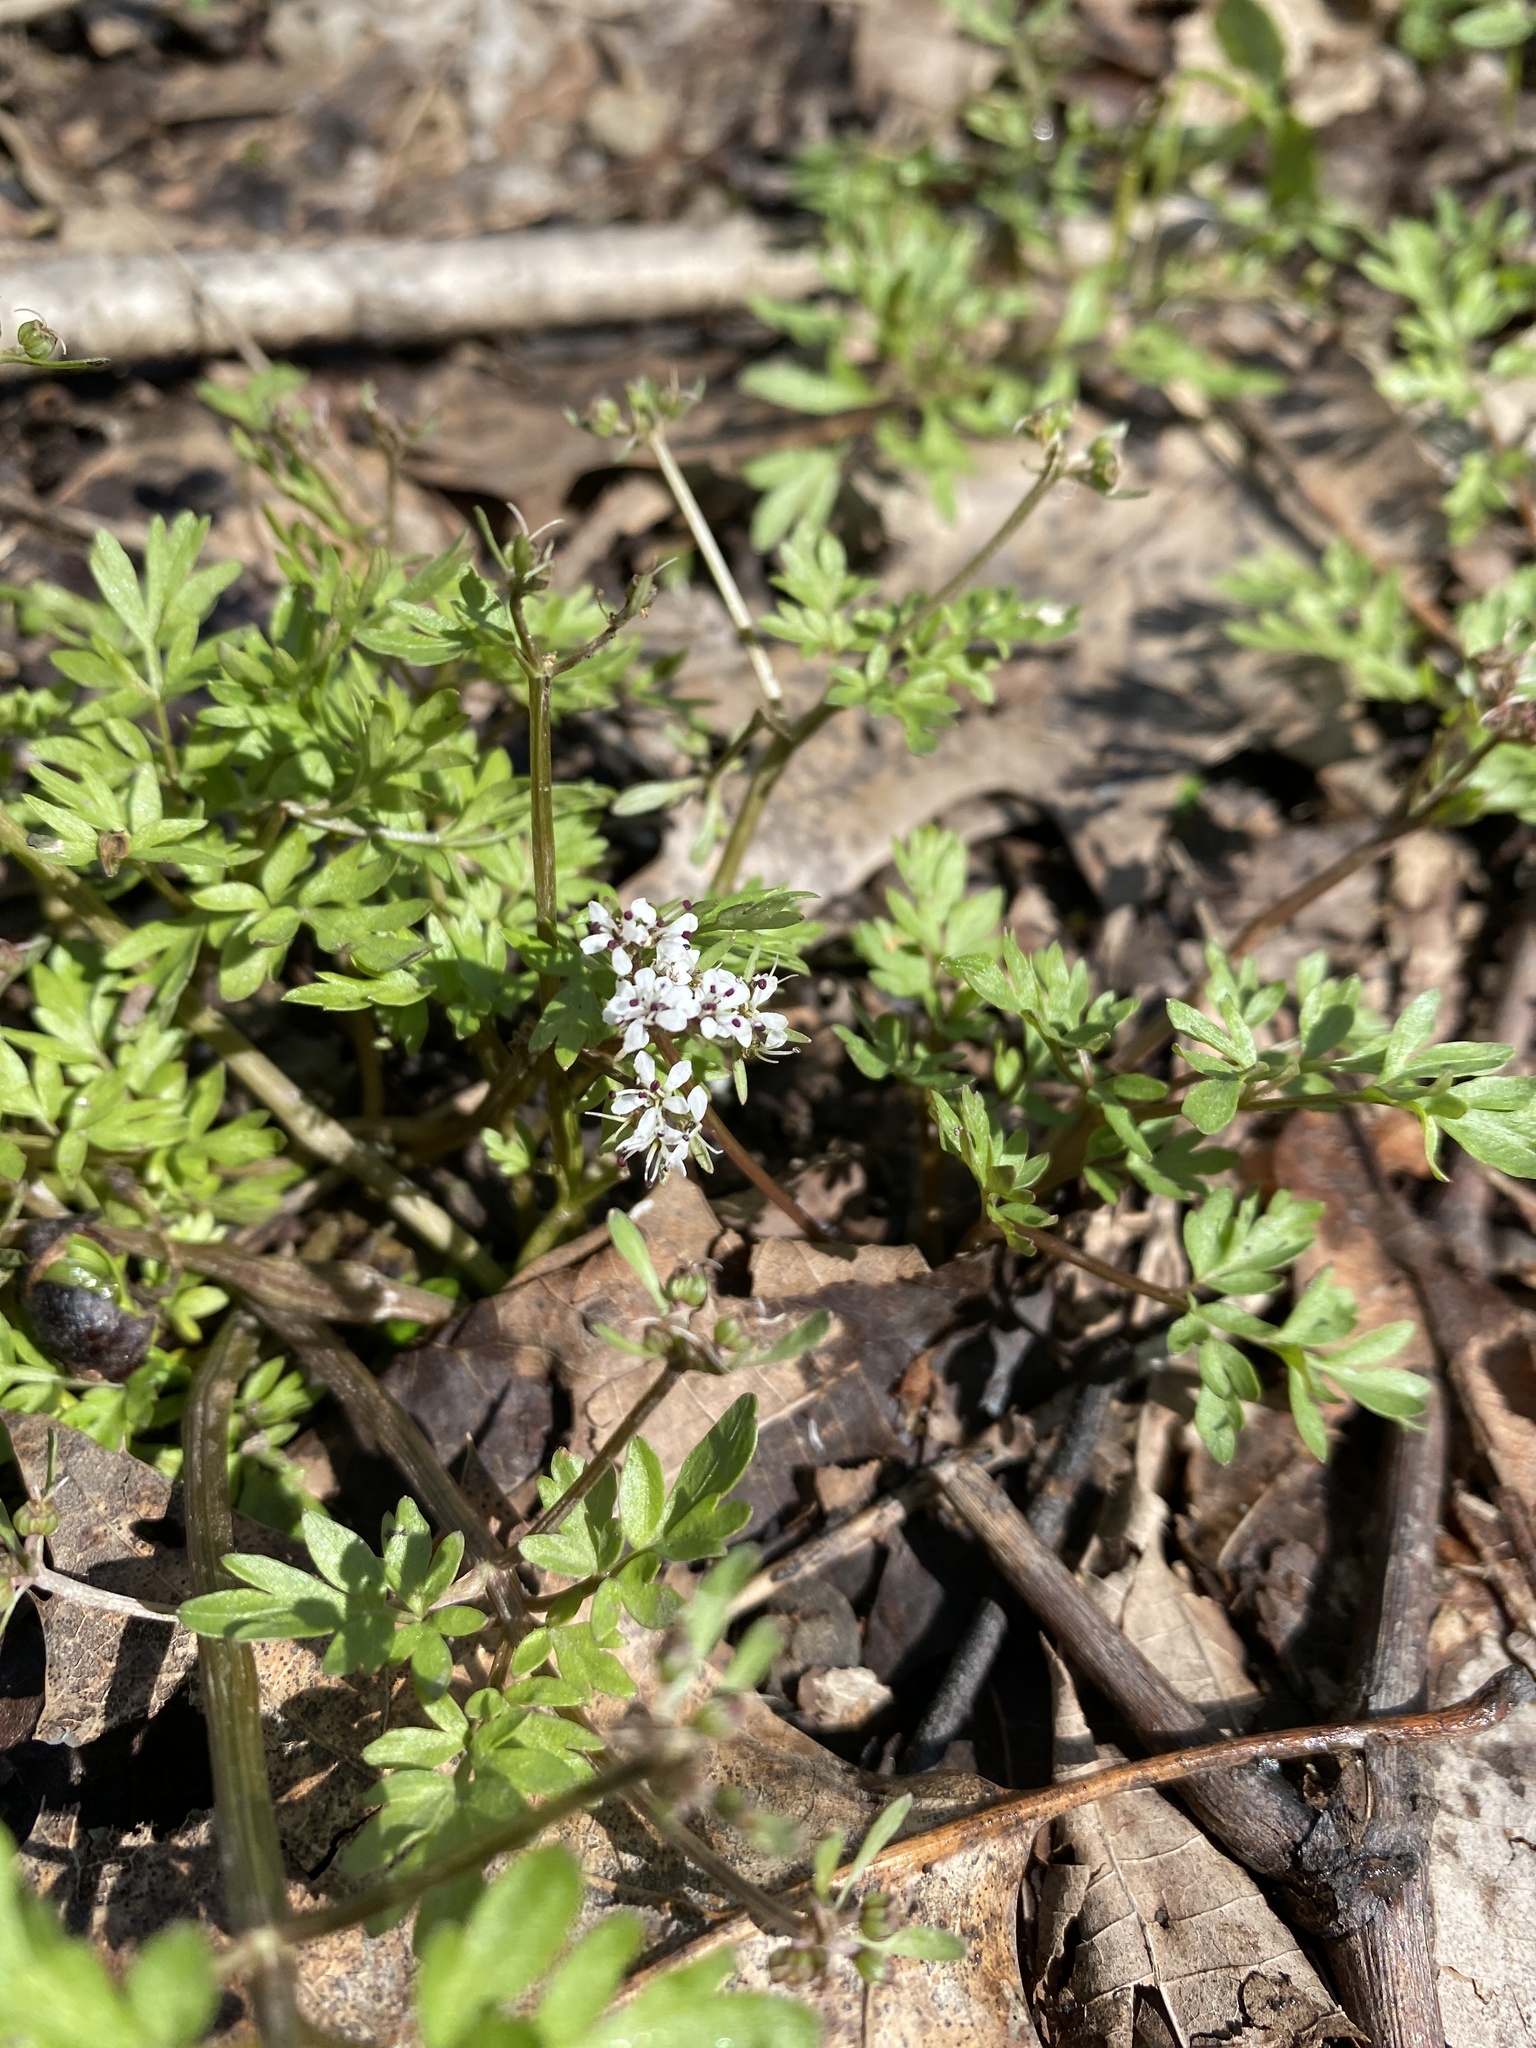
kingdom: Plantae
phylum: Tracheophyta
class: Magnoliopsida
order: Apiales
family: Apiaceae
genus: Erigenia
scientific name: Erigenia bulbosa
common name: Pepper-and-salt
